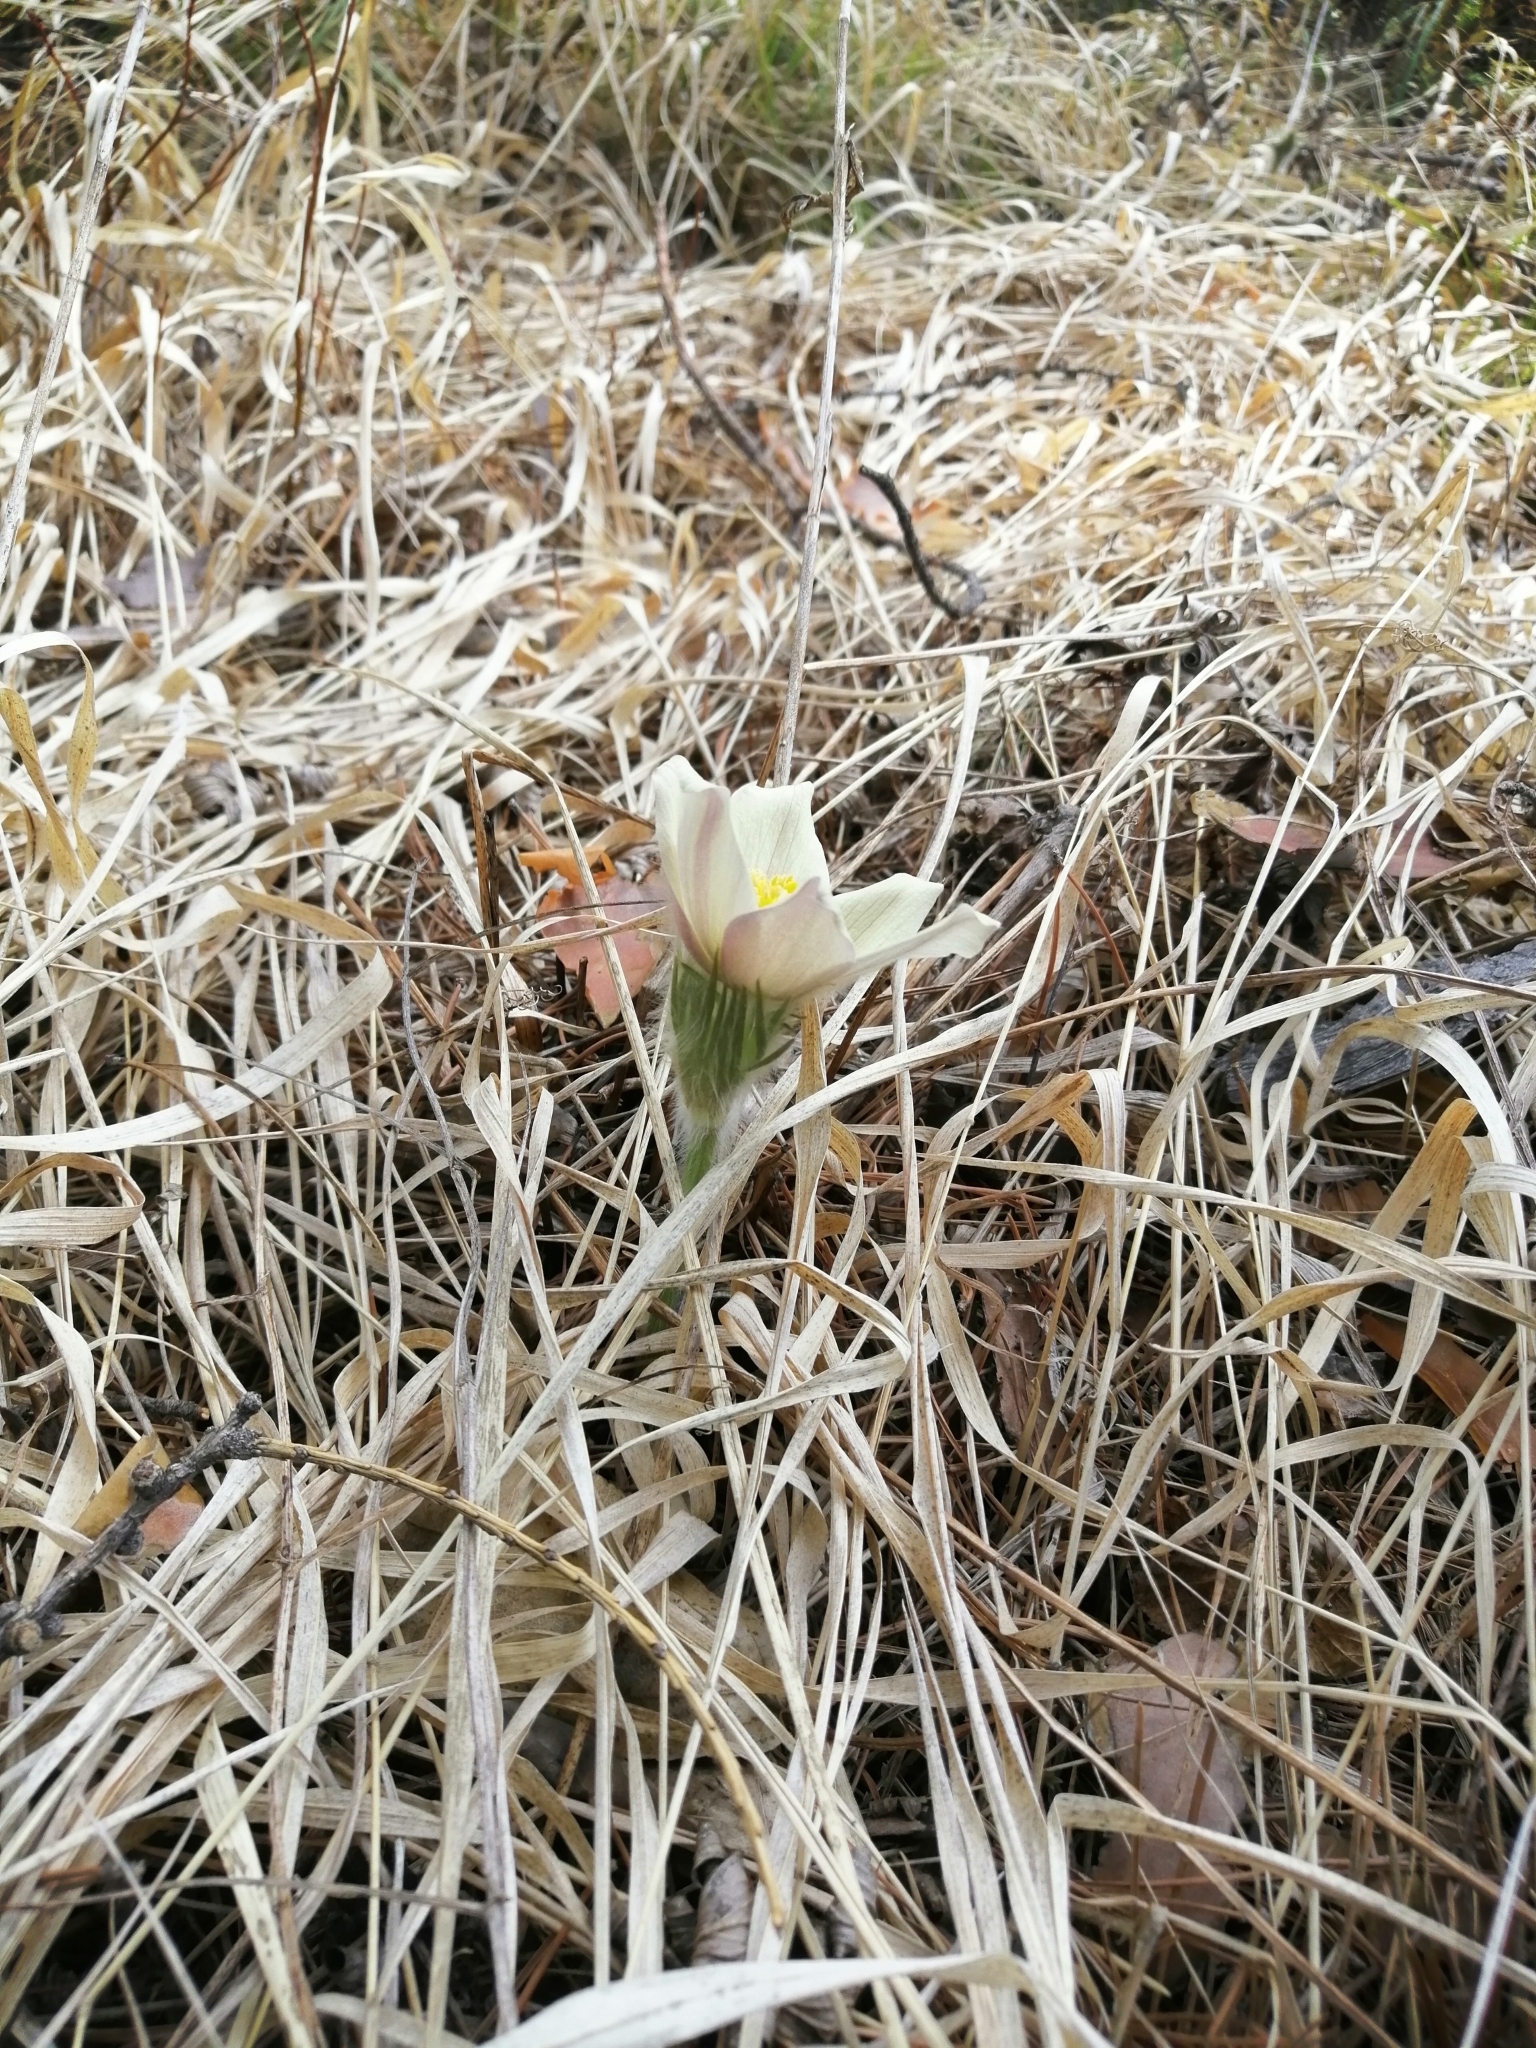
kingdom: Plantae
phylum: Tracheophyta
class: Magnoliopsida
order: Ranunculales
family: Ranunculaceae
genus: Pulsatilla
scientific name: Pulsatilla patens
